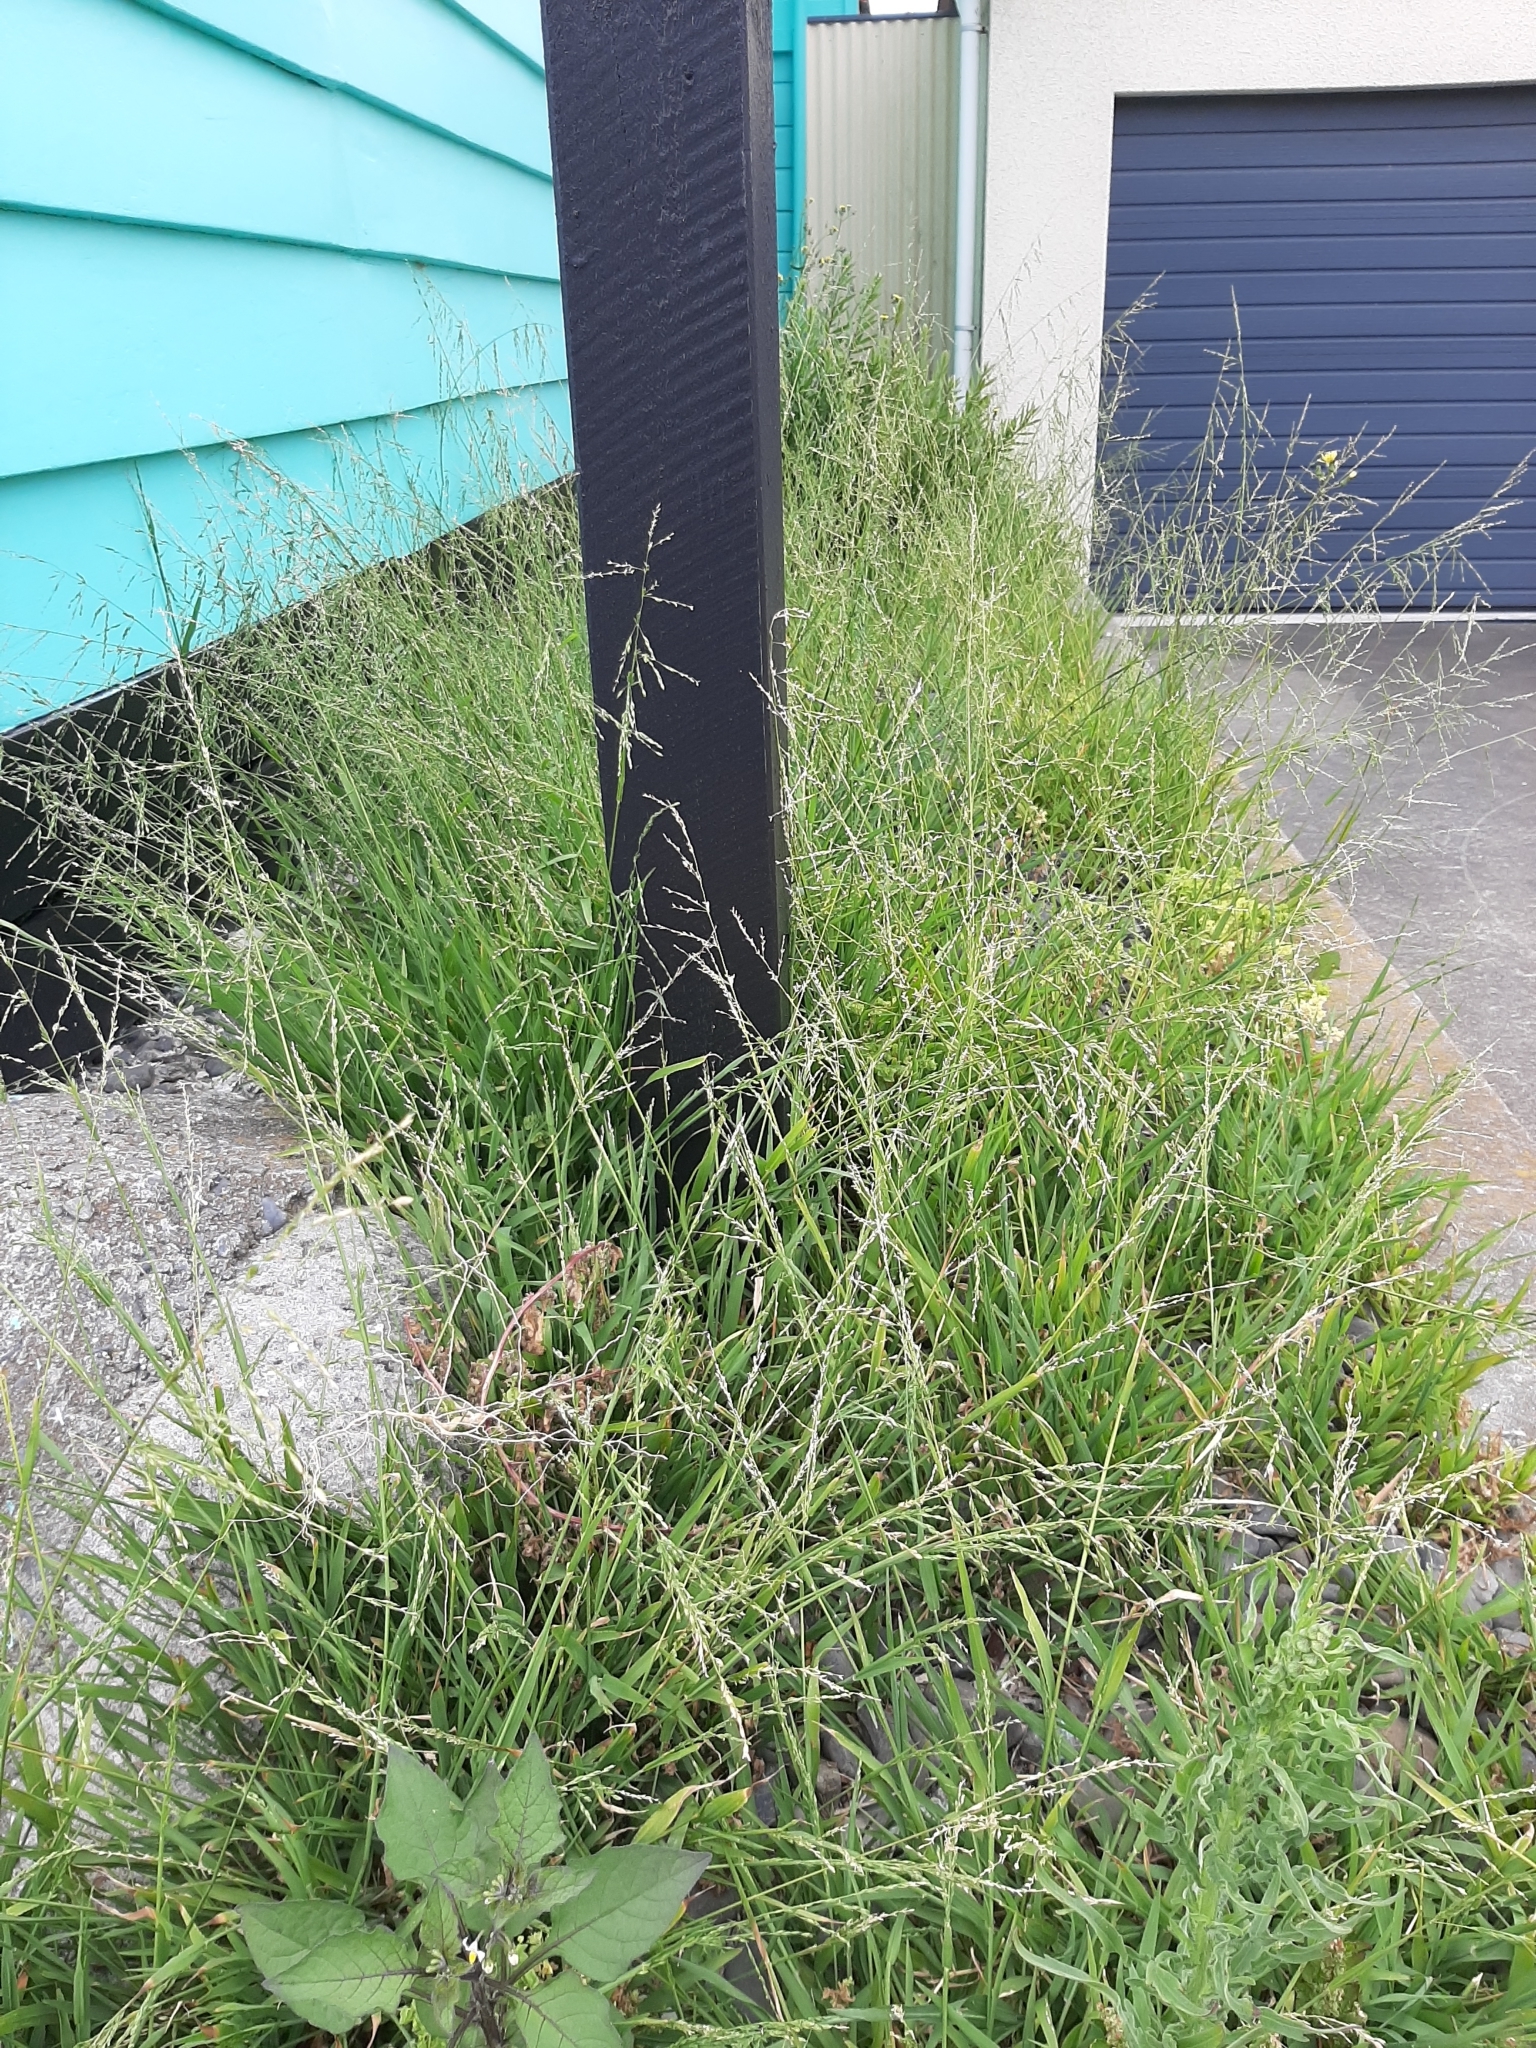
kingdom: Plantae
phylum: Tracheophyta
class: Liliopsida
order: Poales
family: Poaceae
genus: Ehrharta
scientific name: Ehrharta erecta
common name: Panic veldtgrass
